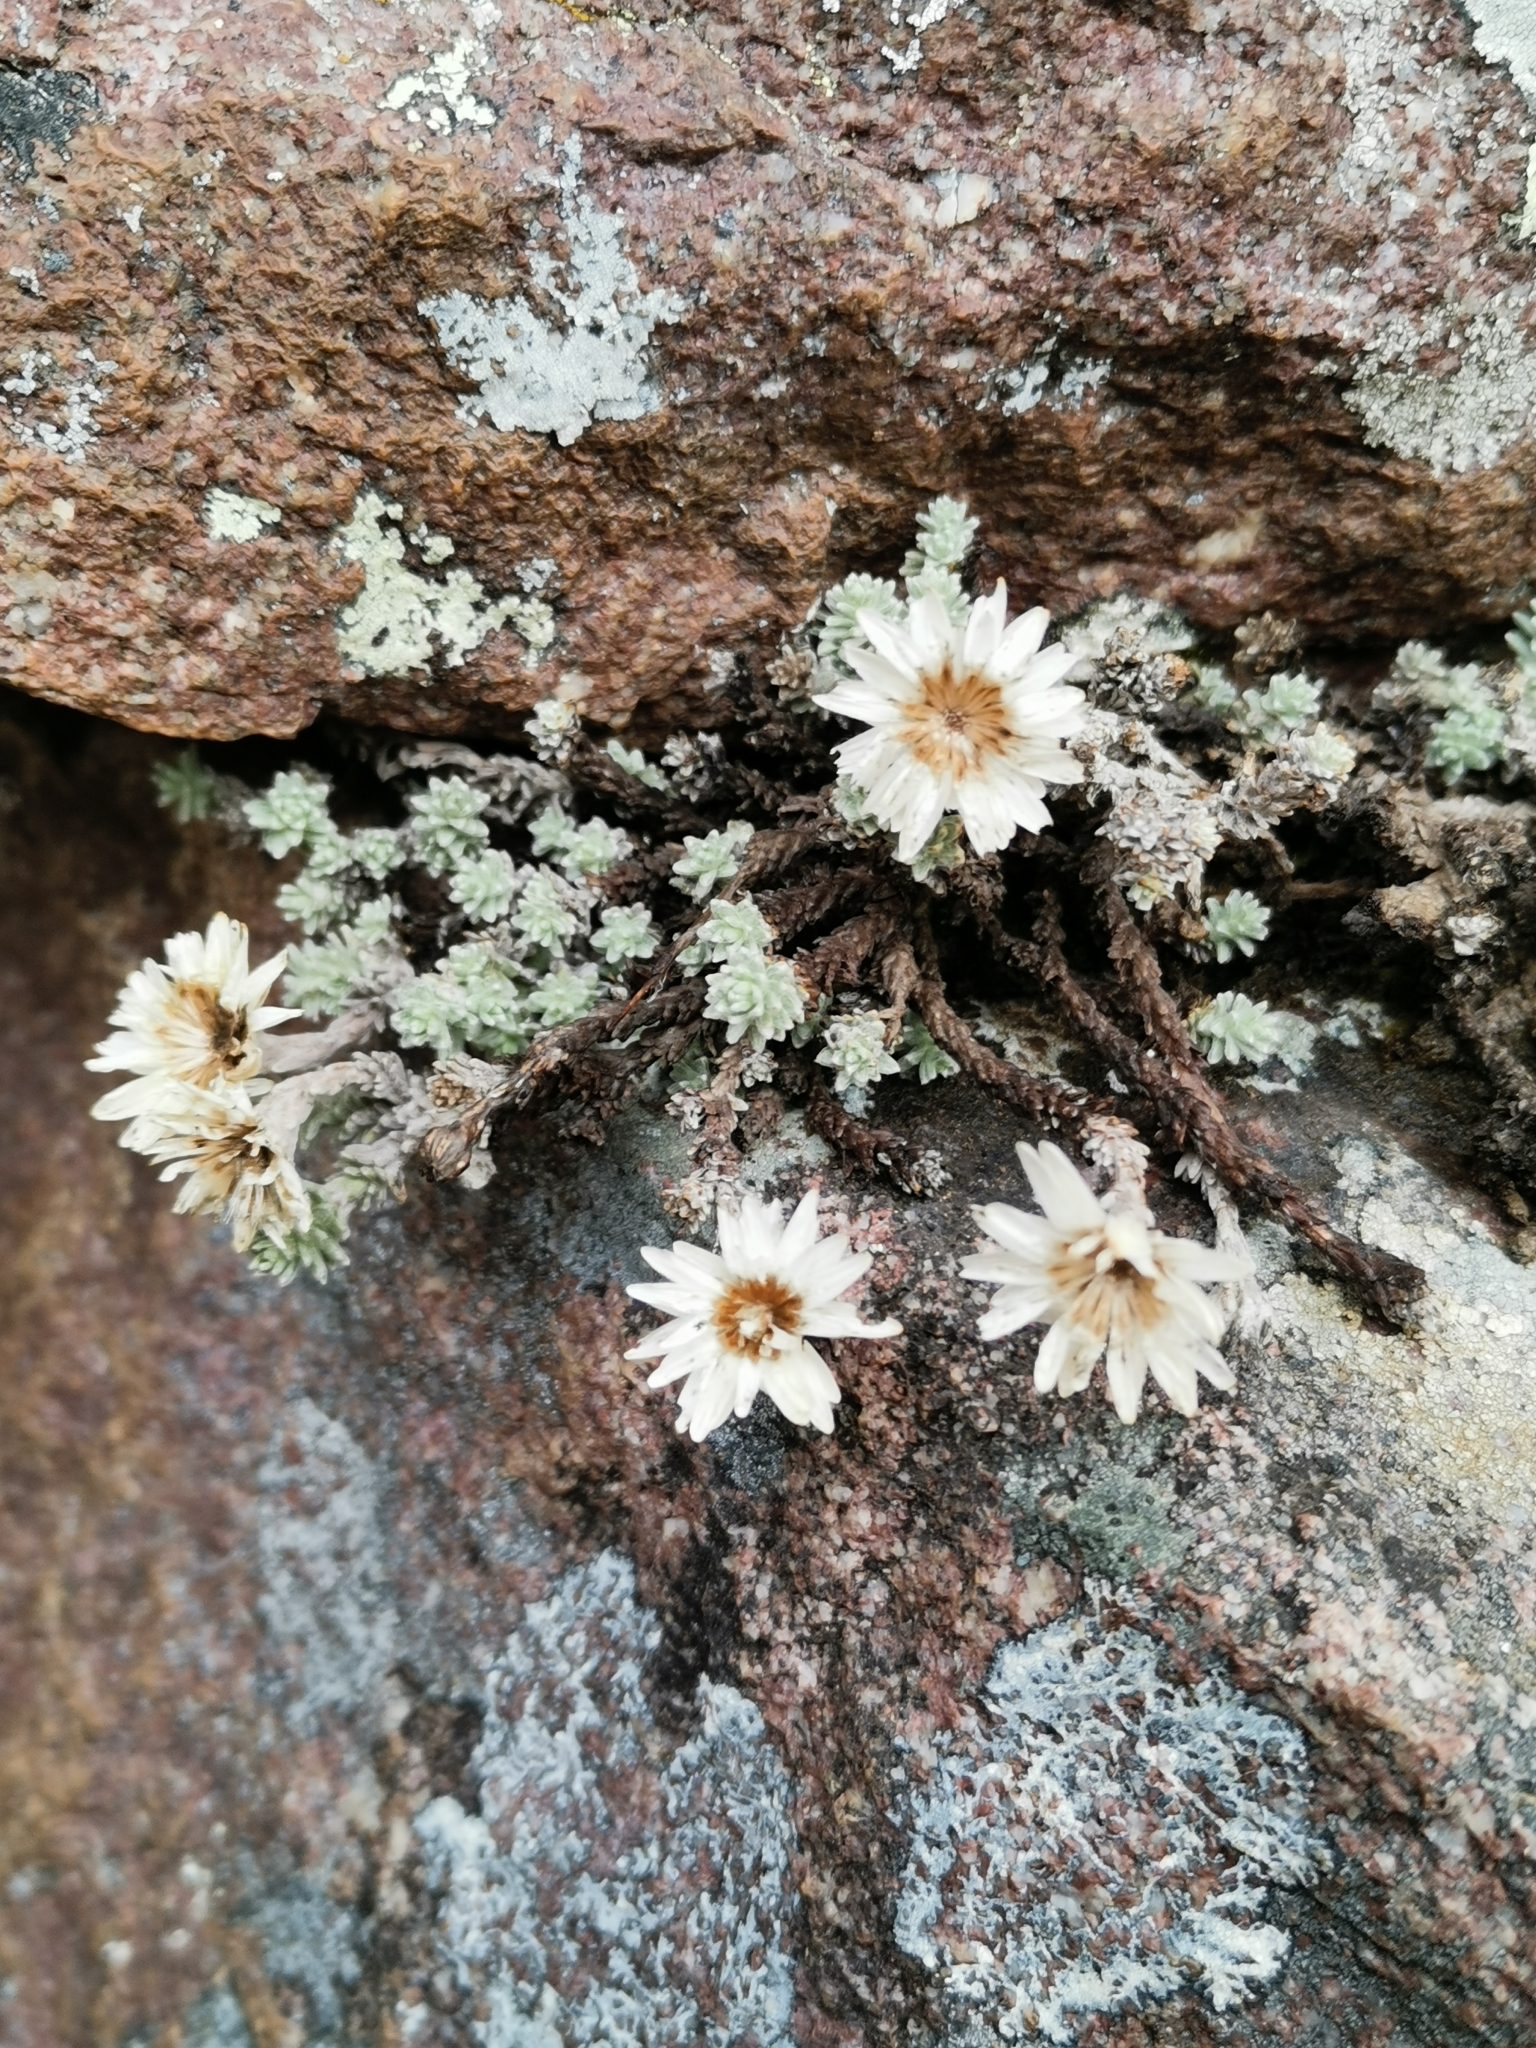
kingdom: Plantae
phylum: Tracheophyta
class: Magnoliopsida
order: Asterales
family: Asteraceae
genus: Castroviejoa
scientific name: Castroviejoa frigida
